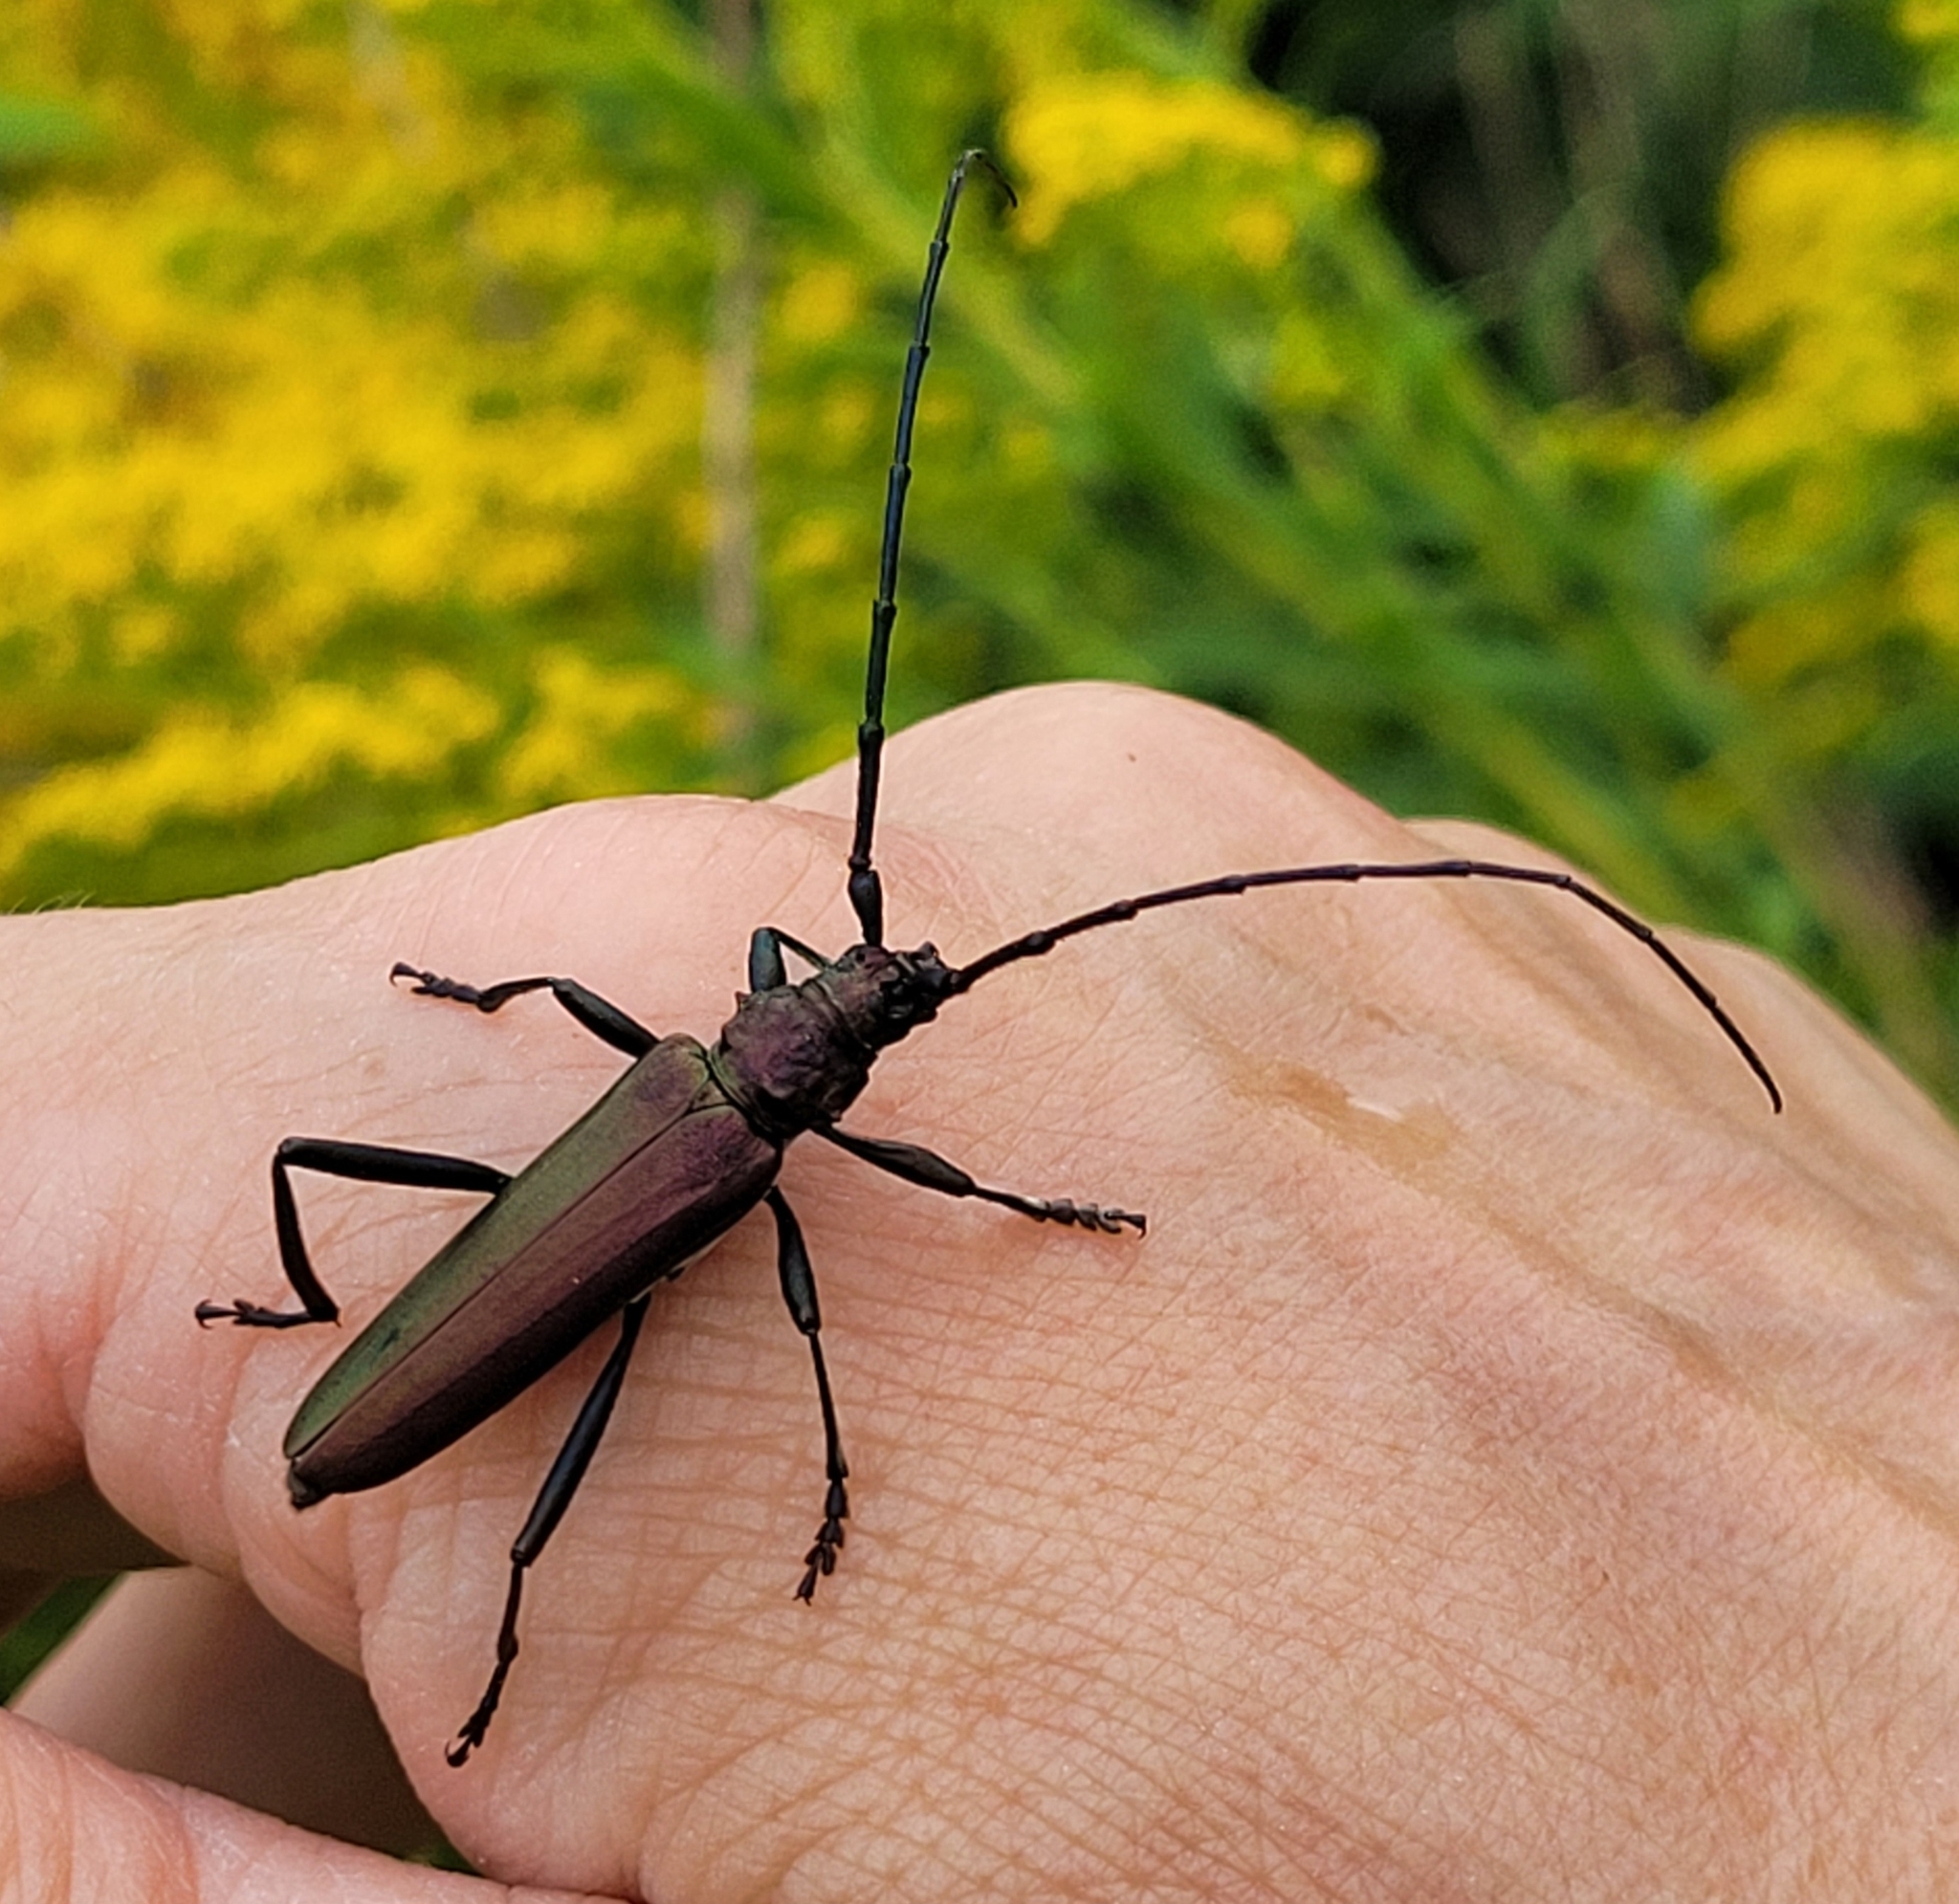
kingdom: Animalia
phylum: Arthropoda
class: Insecta
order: Coleoptera
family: Cerambycidae
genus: Aromia
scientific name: Aromia moschata
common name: Musk beetle
